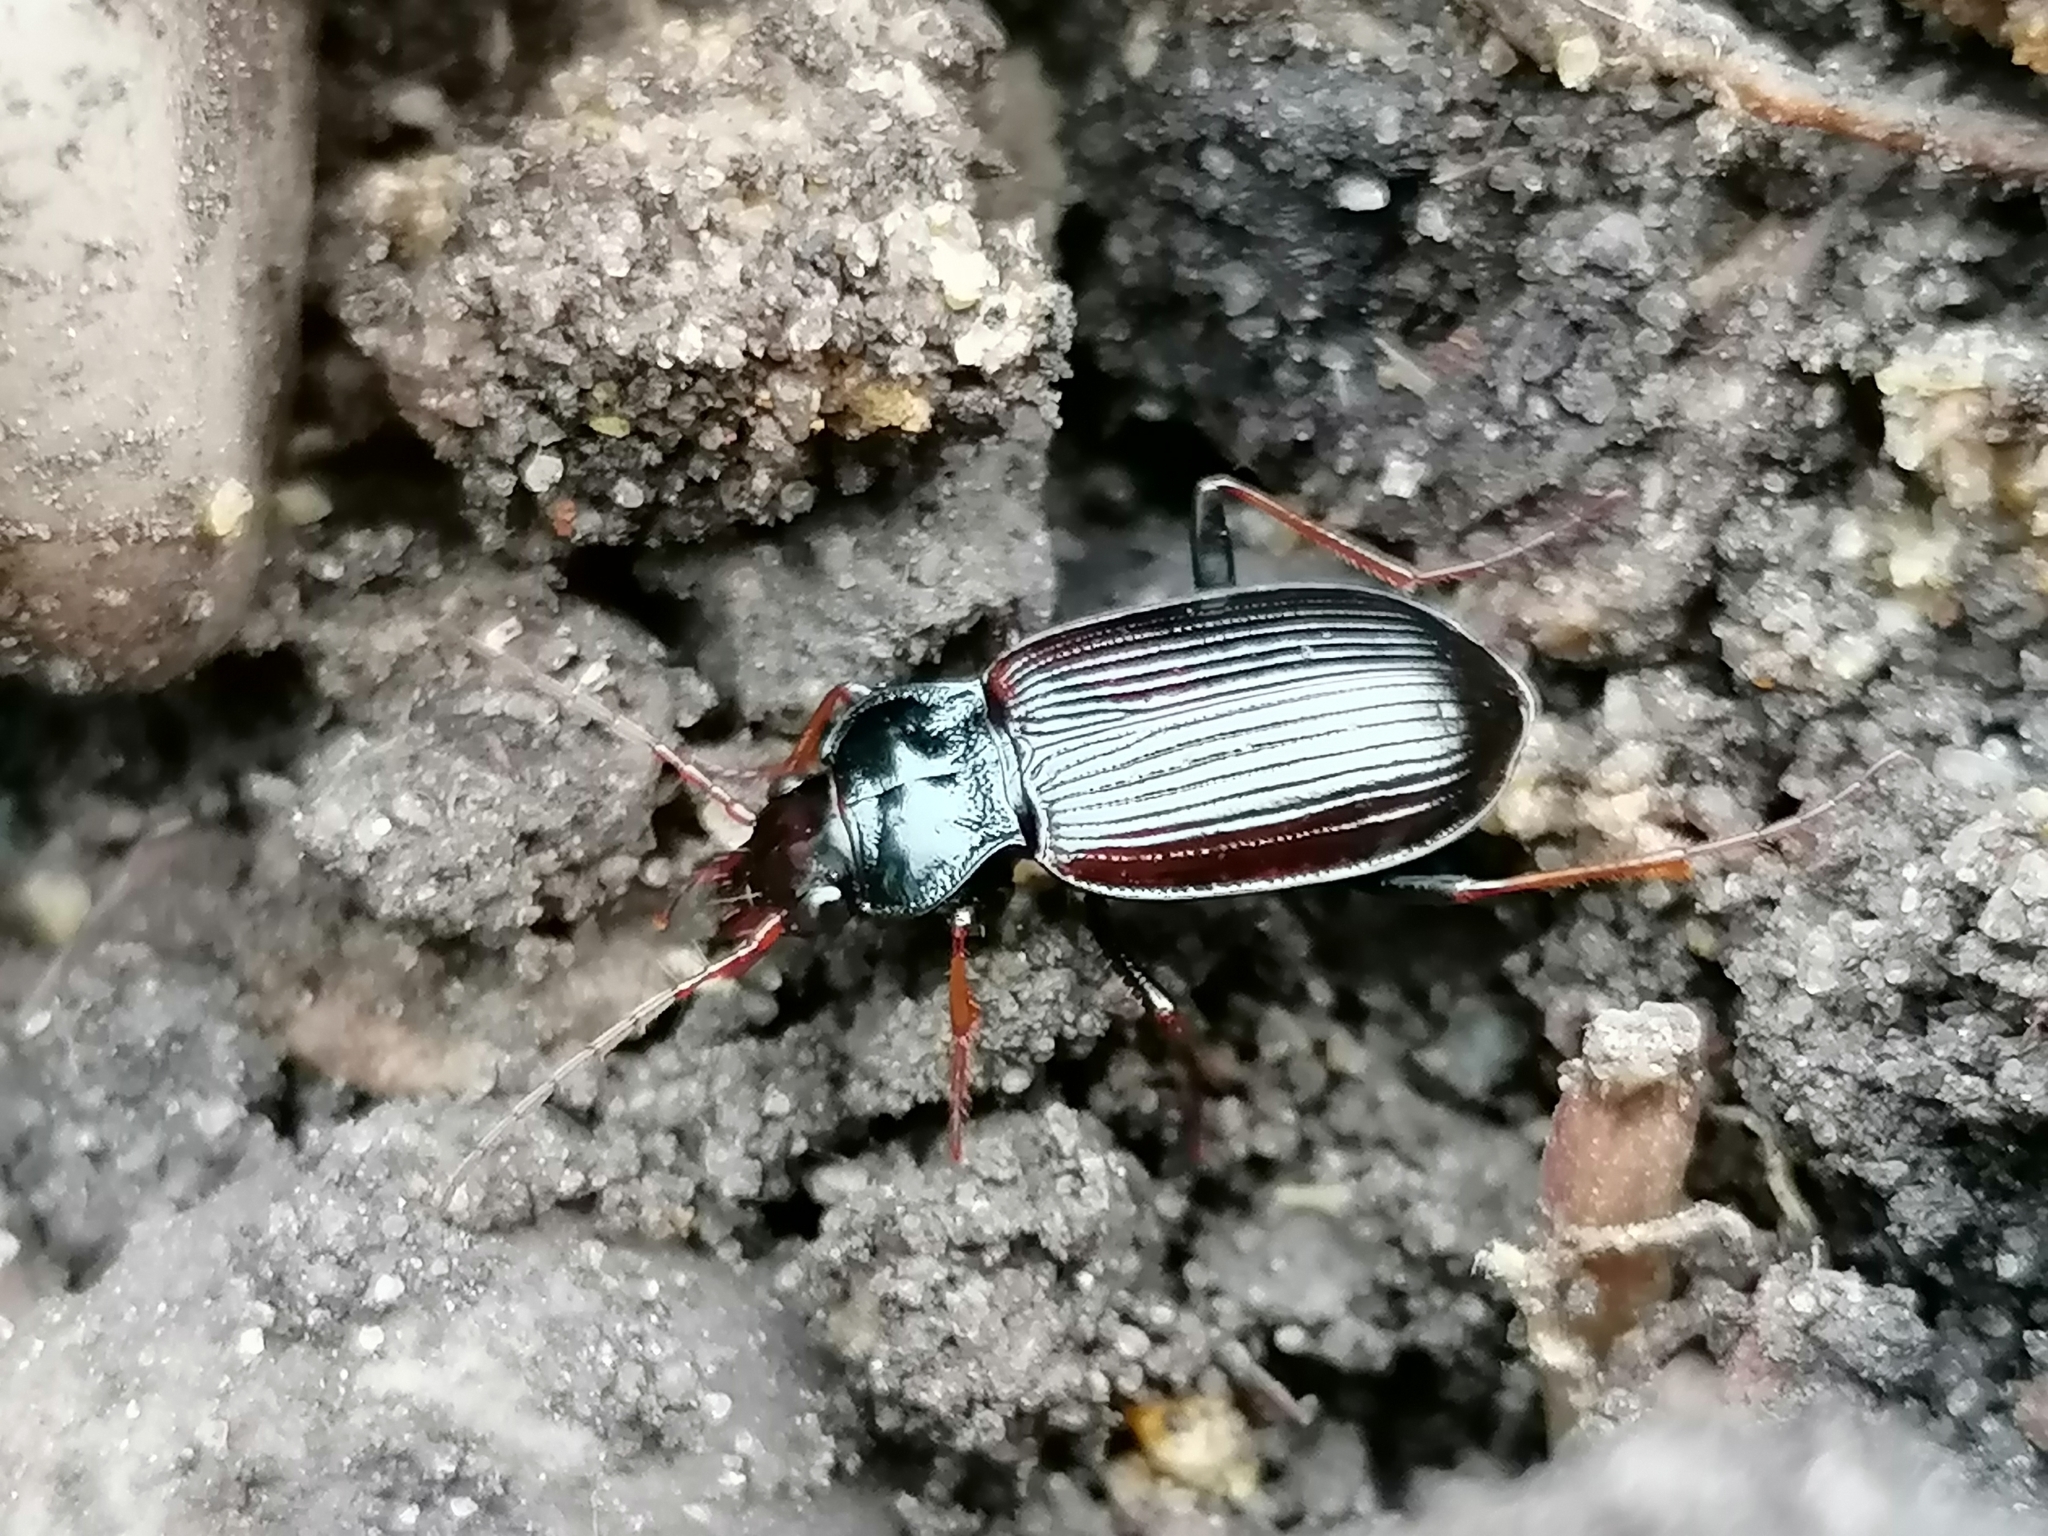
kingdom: Animalia
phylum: Arthropoda
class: Insecta
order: Coleoptera
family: Carabidae
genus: Nebria
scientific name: Nebria brevicollis
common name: Short-necked gazelle beetle
